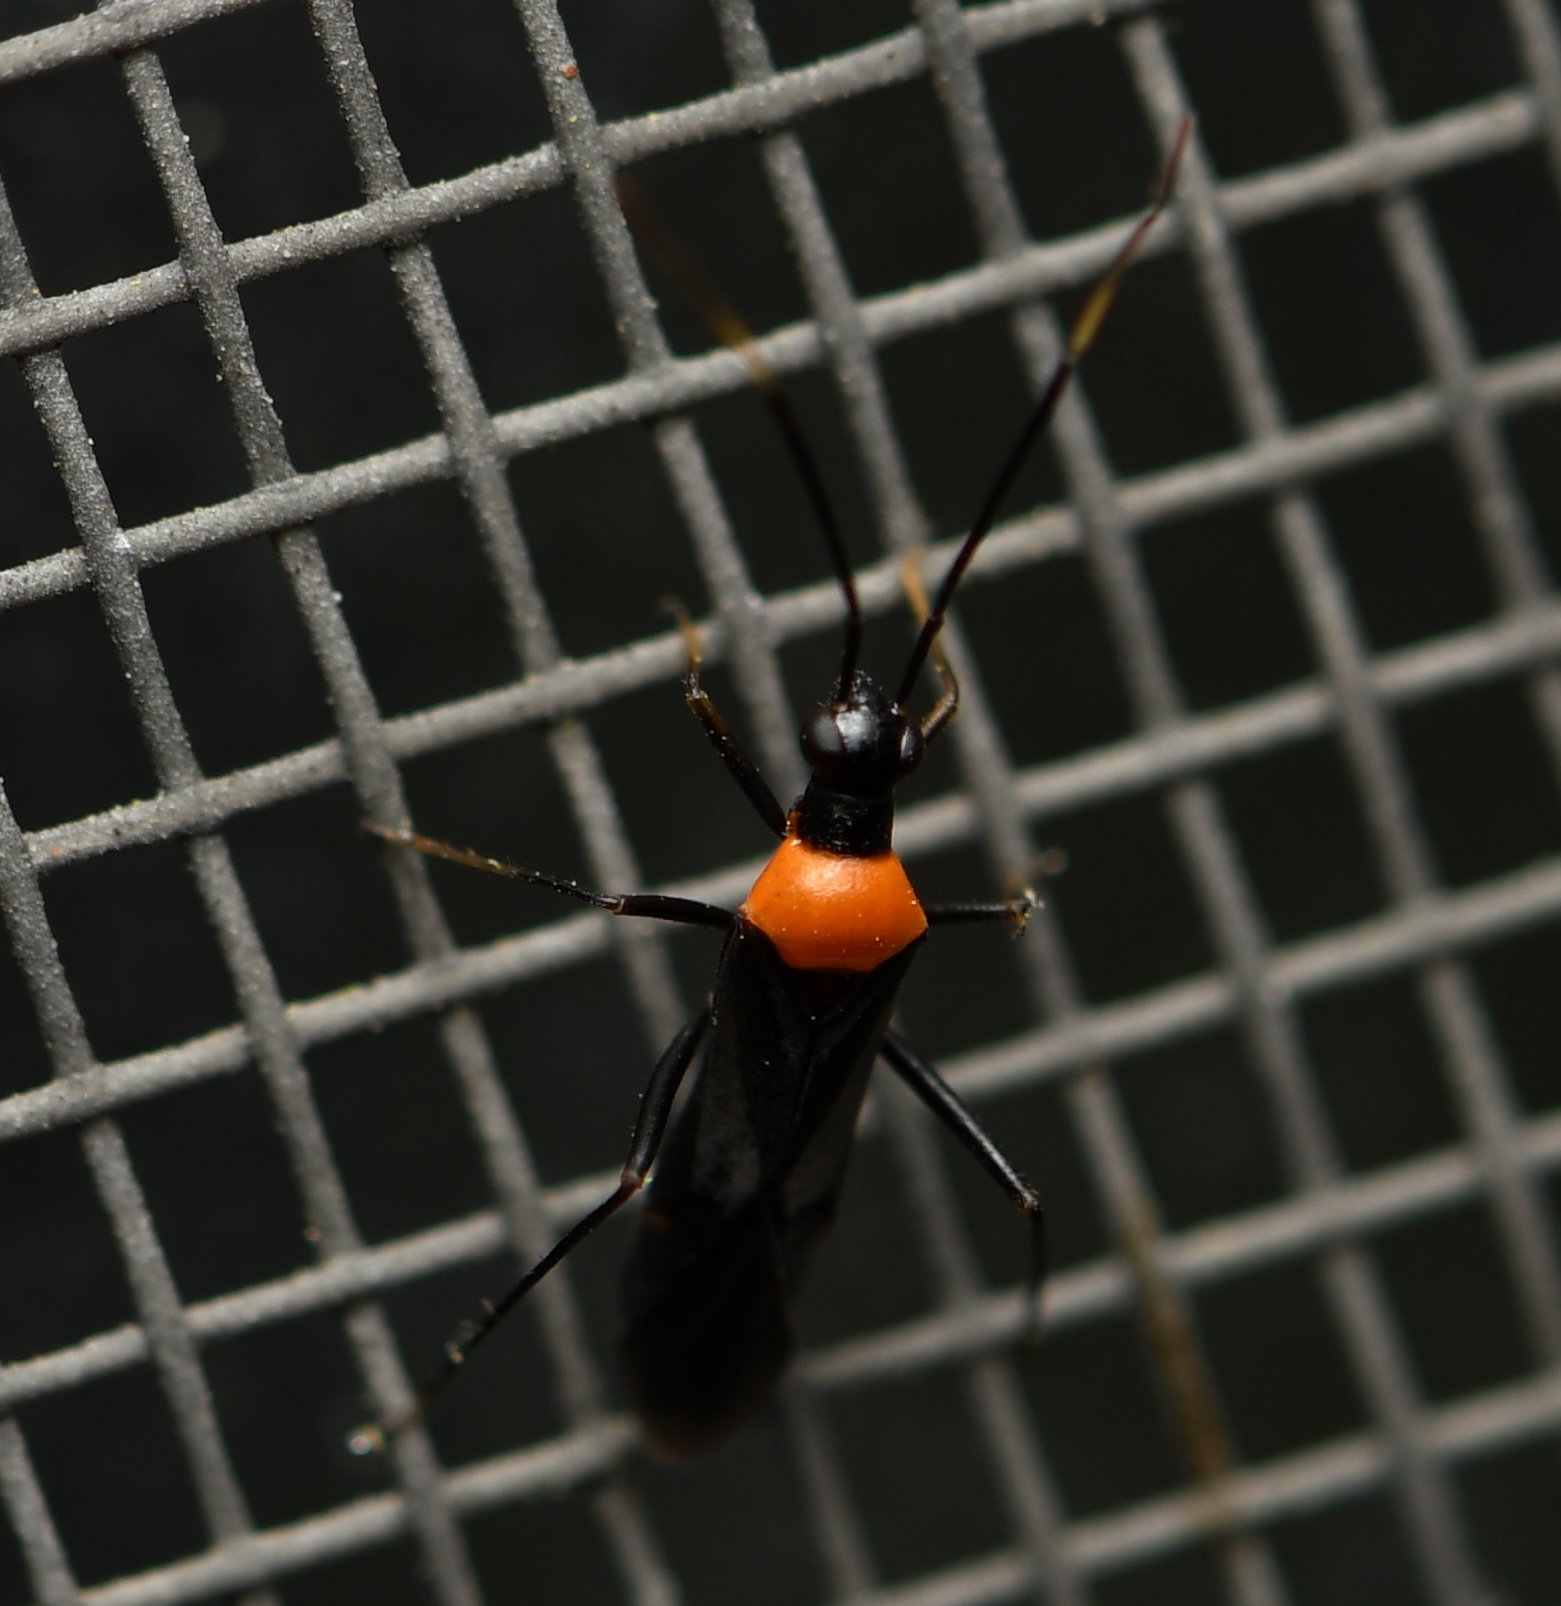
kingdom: Animalia
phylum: Arthropoda
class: Insecta
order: Hemiptera
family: Miridae
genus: Pseudoxenetus
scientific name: Pseudoxenetus regalis
